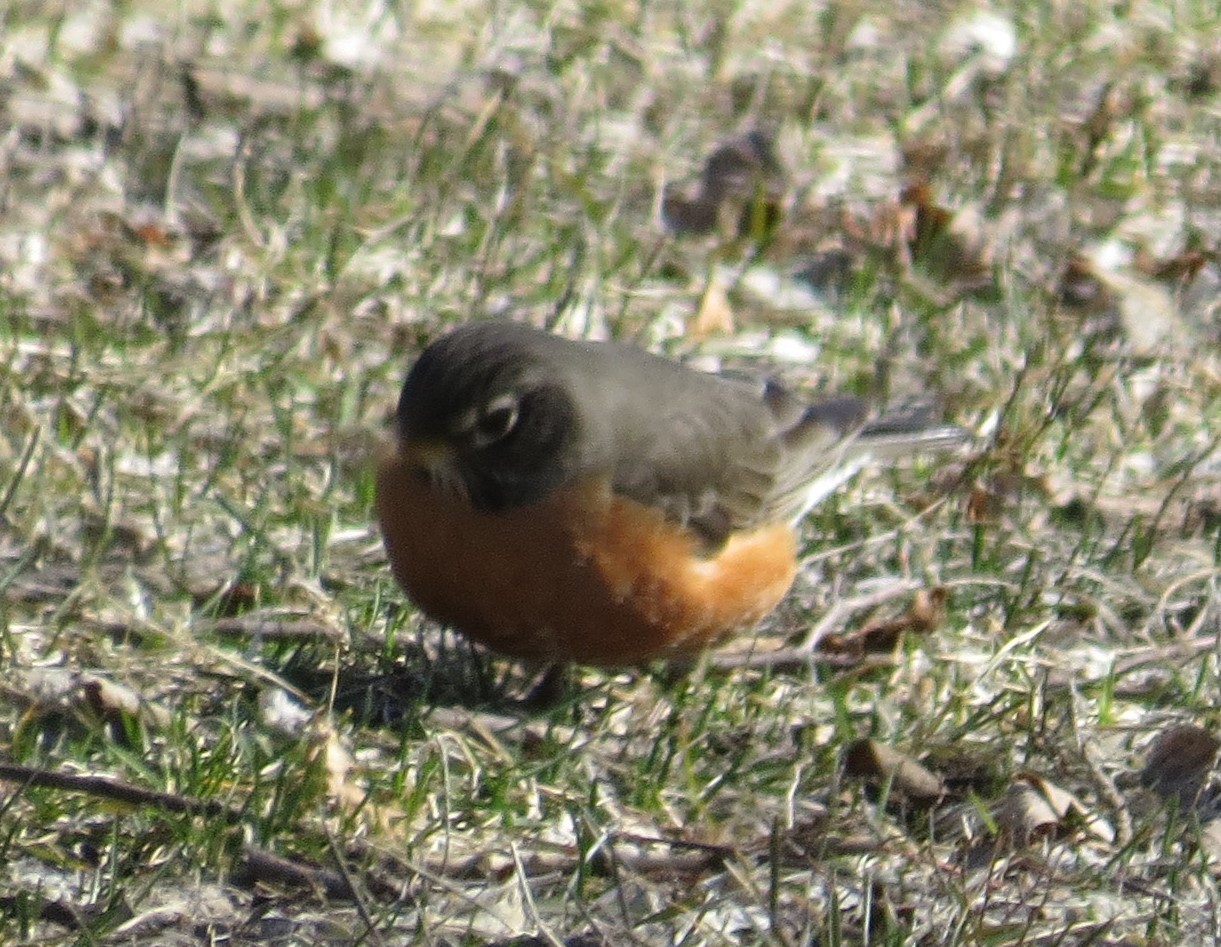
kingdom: Animalia
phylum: Chordata
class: Aves
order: Passeriformes
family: Turdidae
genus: Turdus
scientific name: Turdus migratorius
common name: American robin
